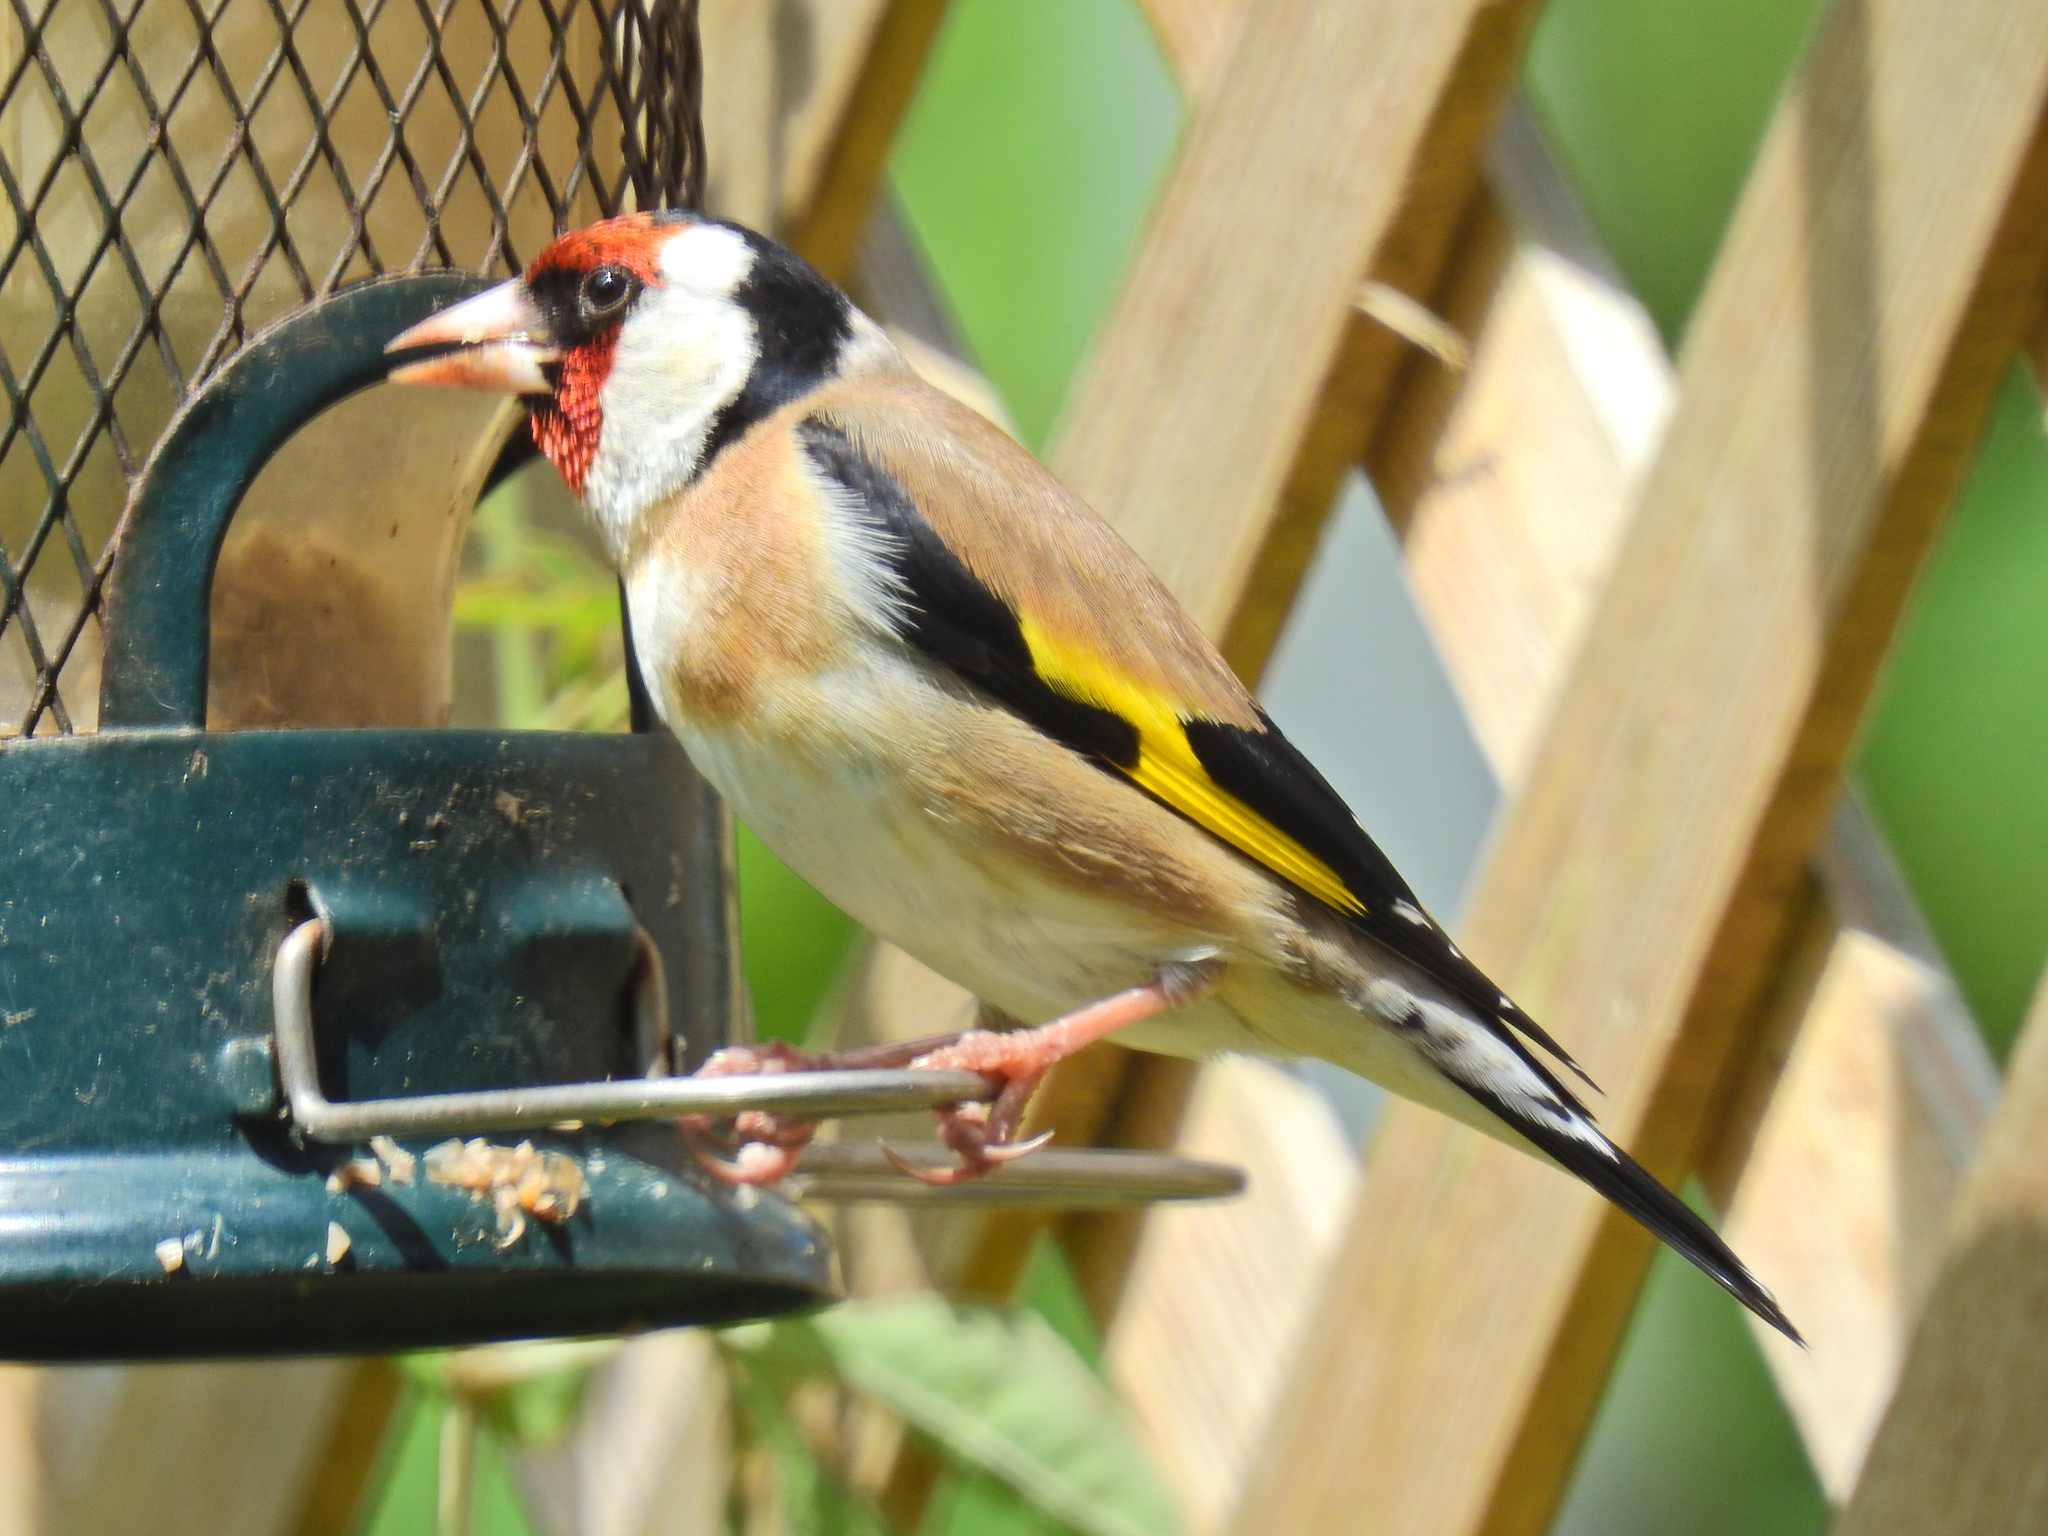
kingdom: Animalia
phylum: Chordata
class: Aves
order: Passeriformes
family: Fringillidae
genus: Carduelis
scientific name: Carduelis carduelis
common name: European goldfinch
